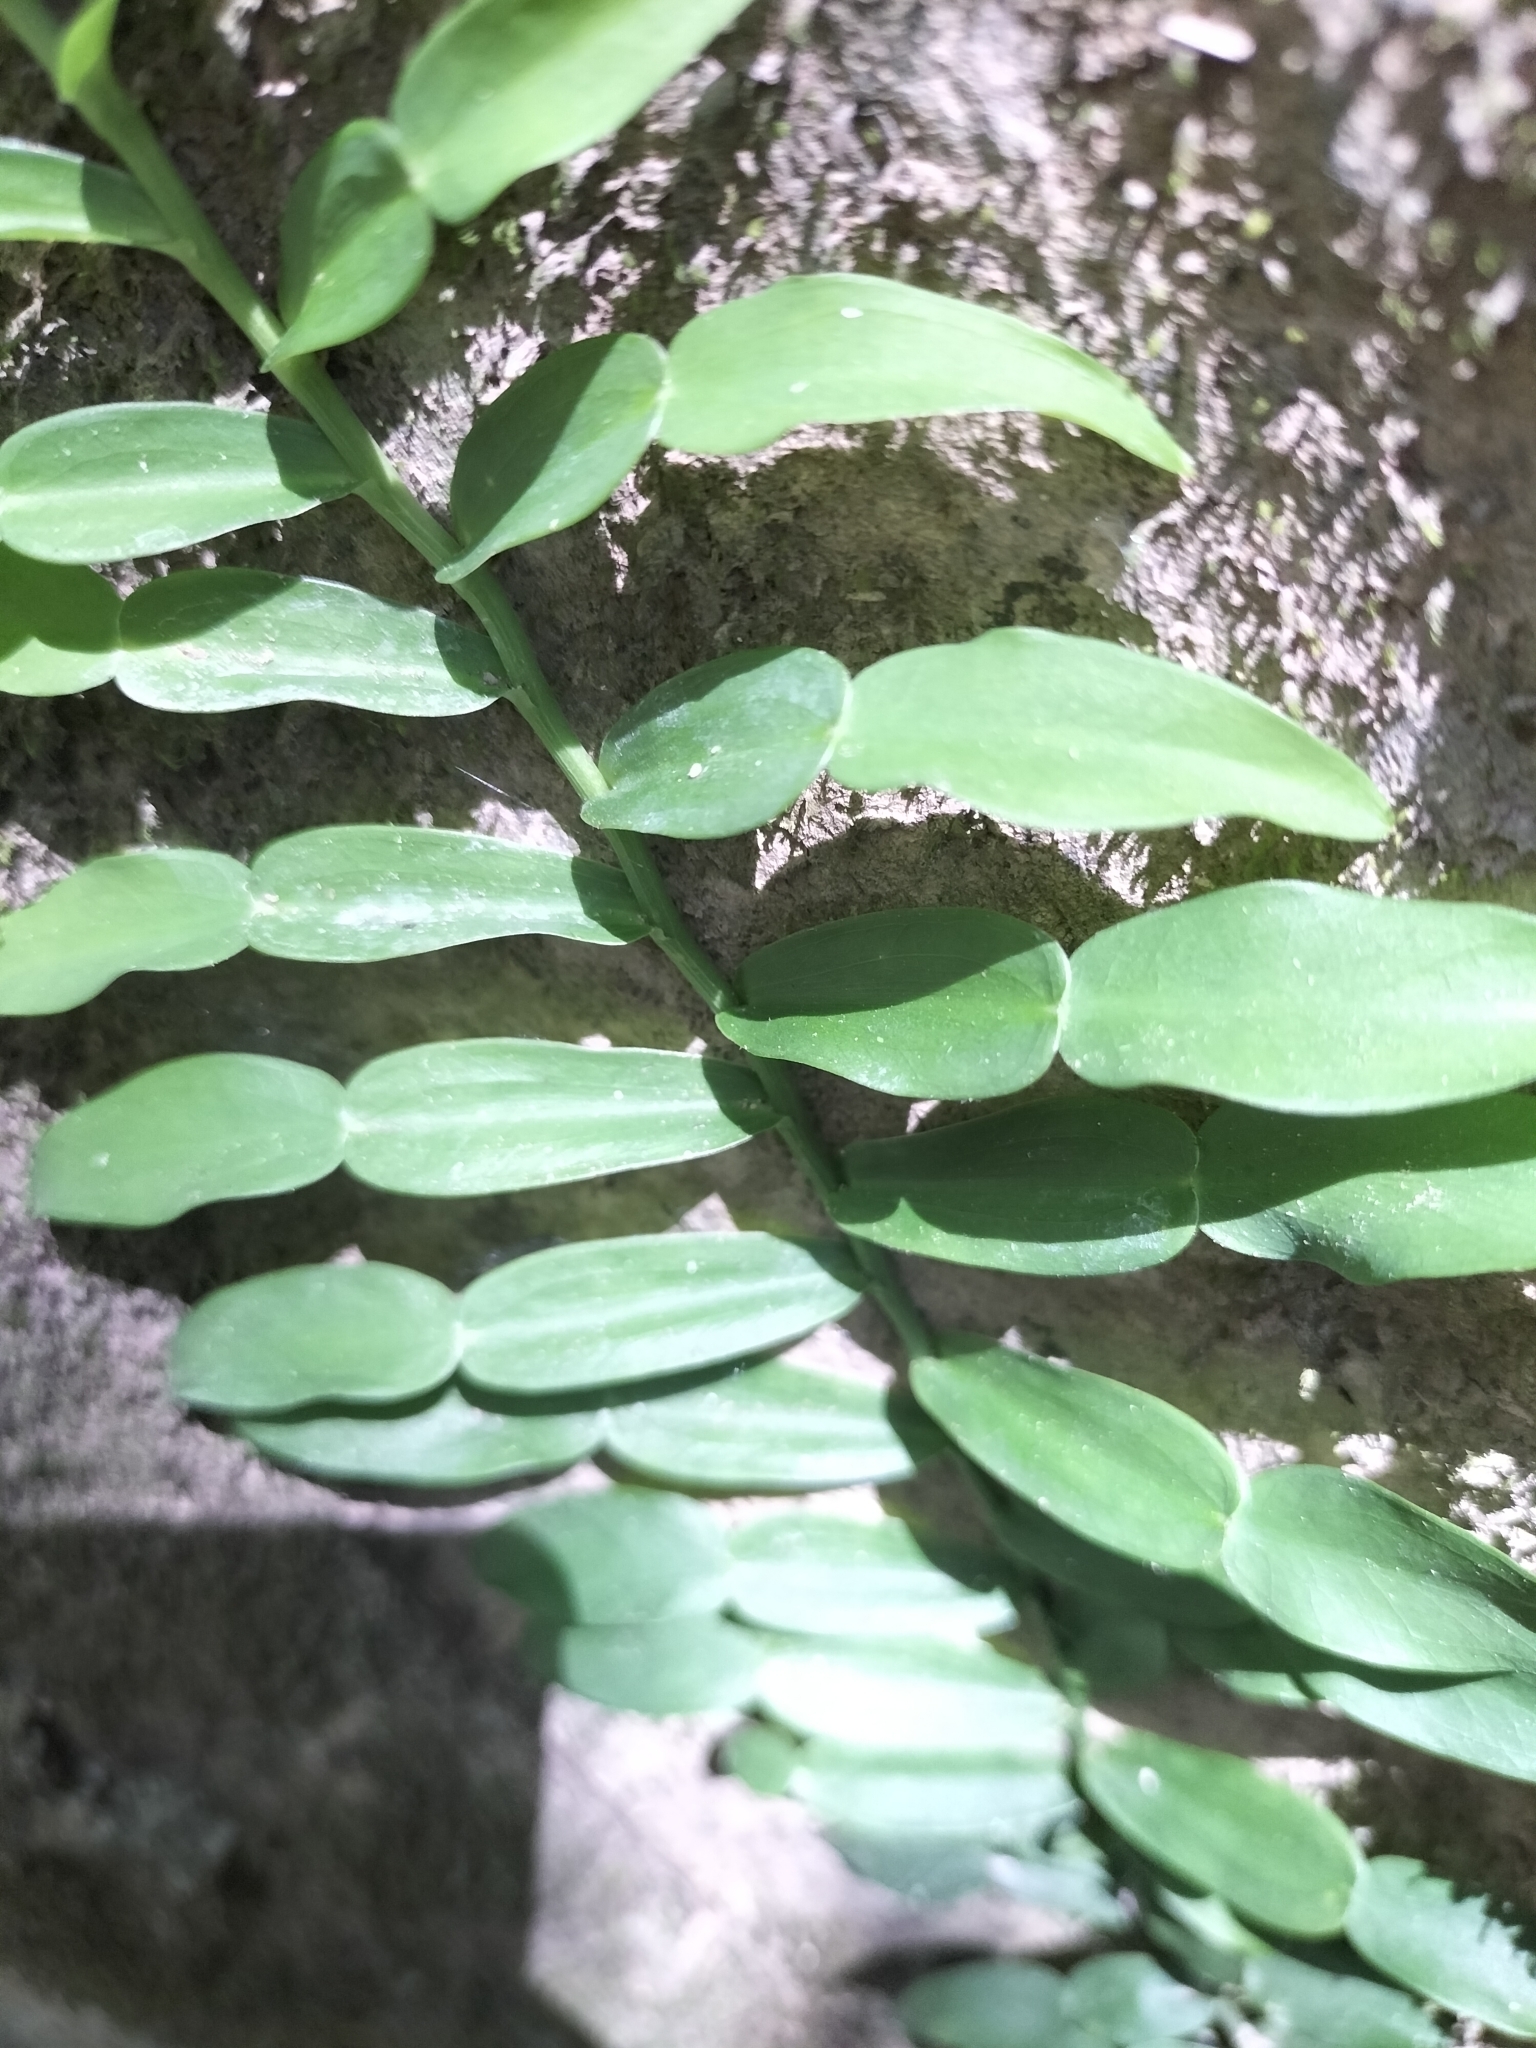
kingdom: Plantae
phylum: Tracheophyta
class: Liliopsida
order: Alismatales
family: Araceae
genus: Pothos
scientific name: Pothos longipes
